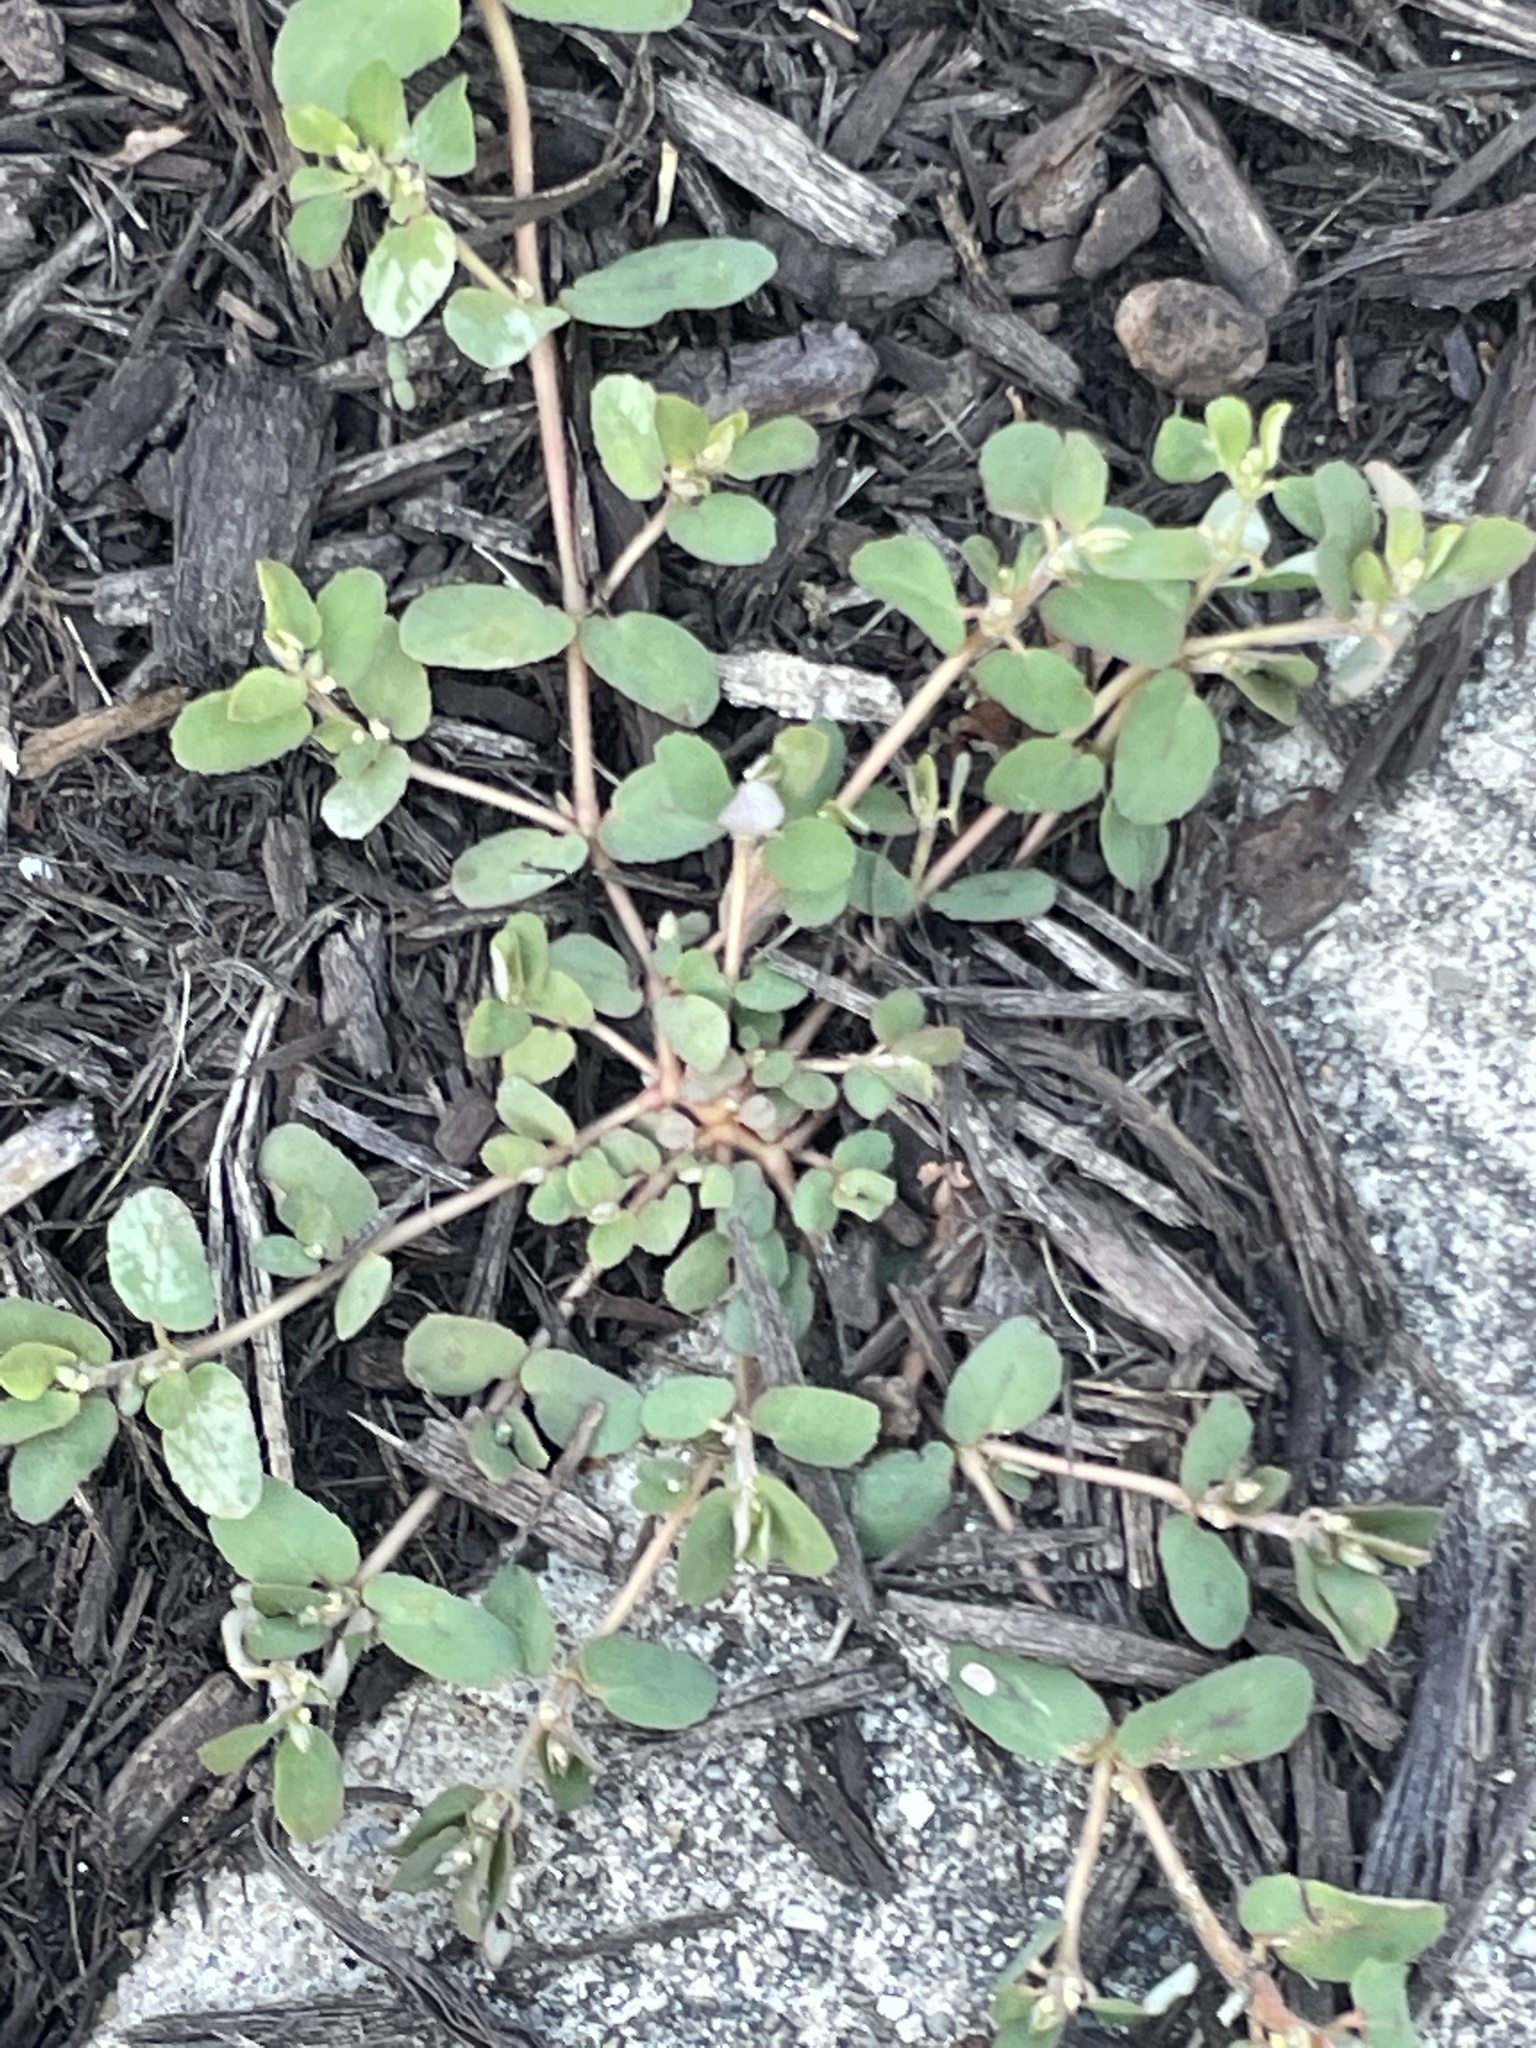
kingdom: Plantae
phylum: Tracheophyta
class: Magnoliopsida
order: Malpighiales
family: Euphorbiaceae
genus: Euphorbia
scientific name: Euphorbia maculata
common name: Spotted spurge
